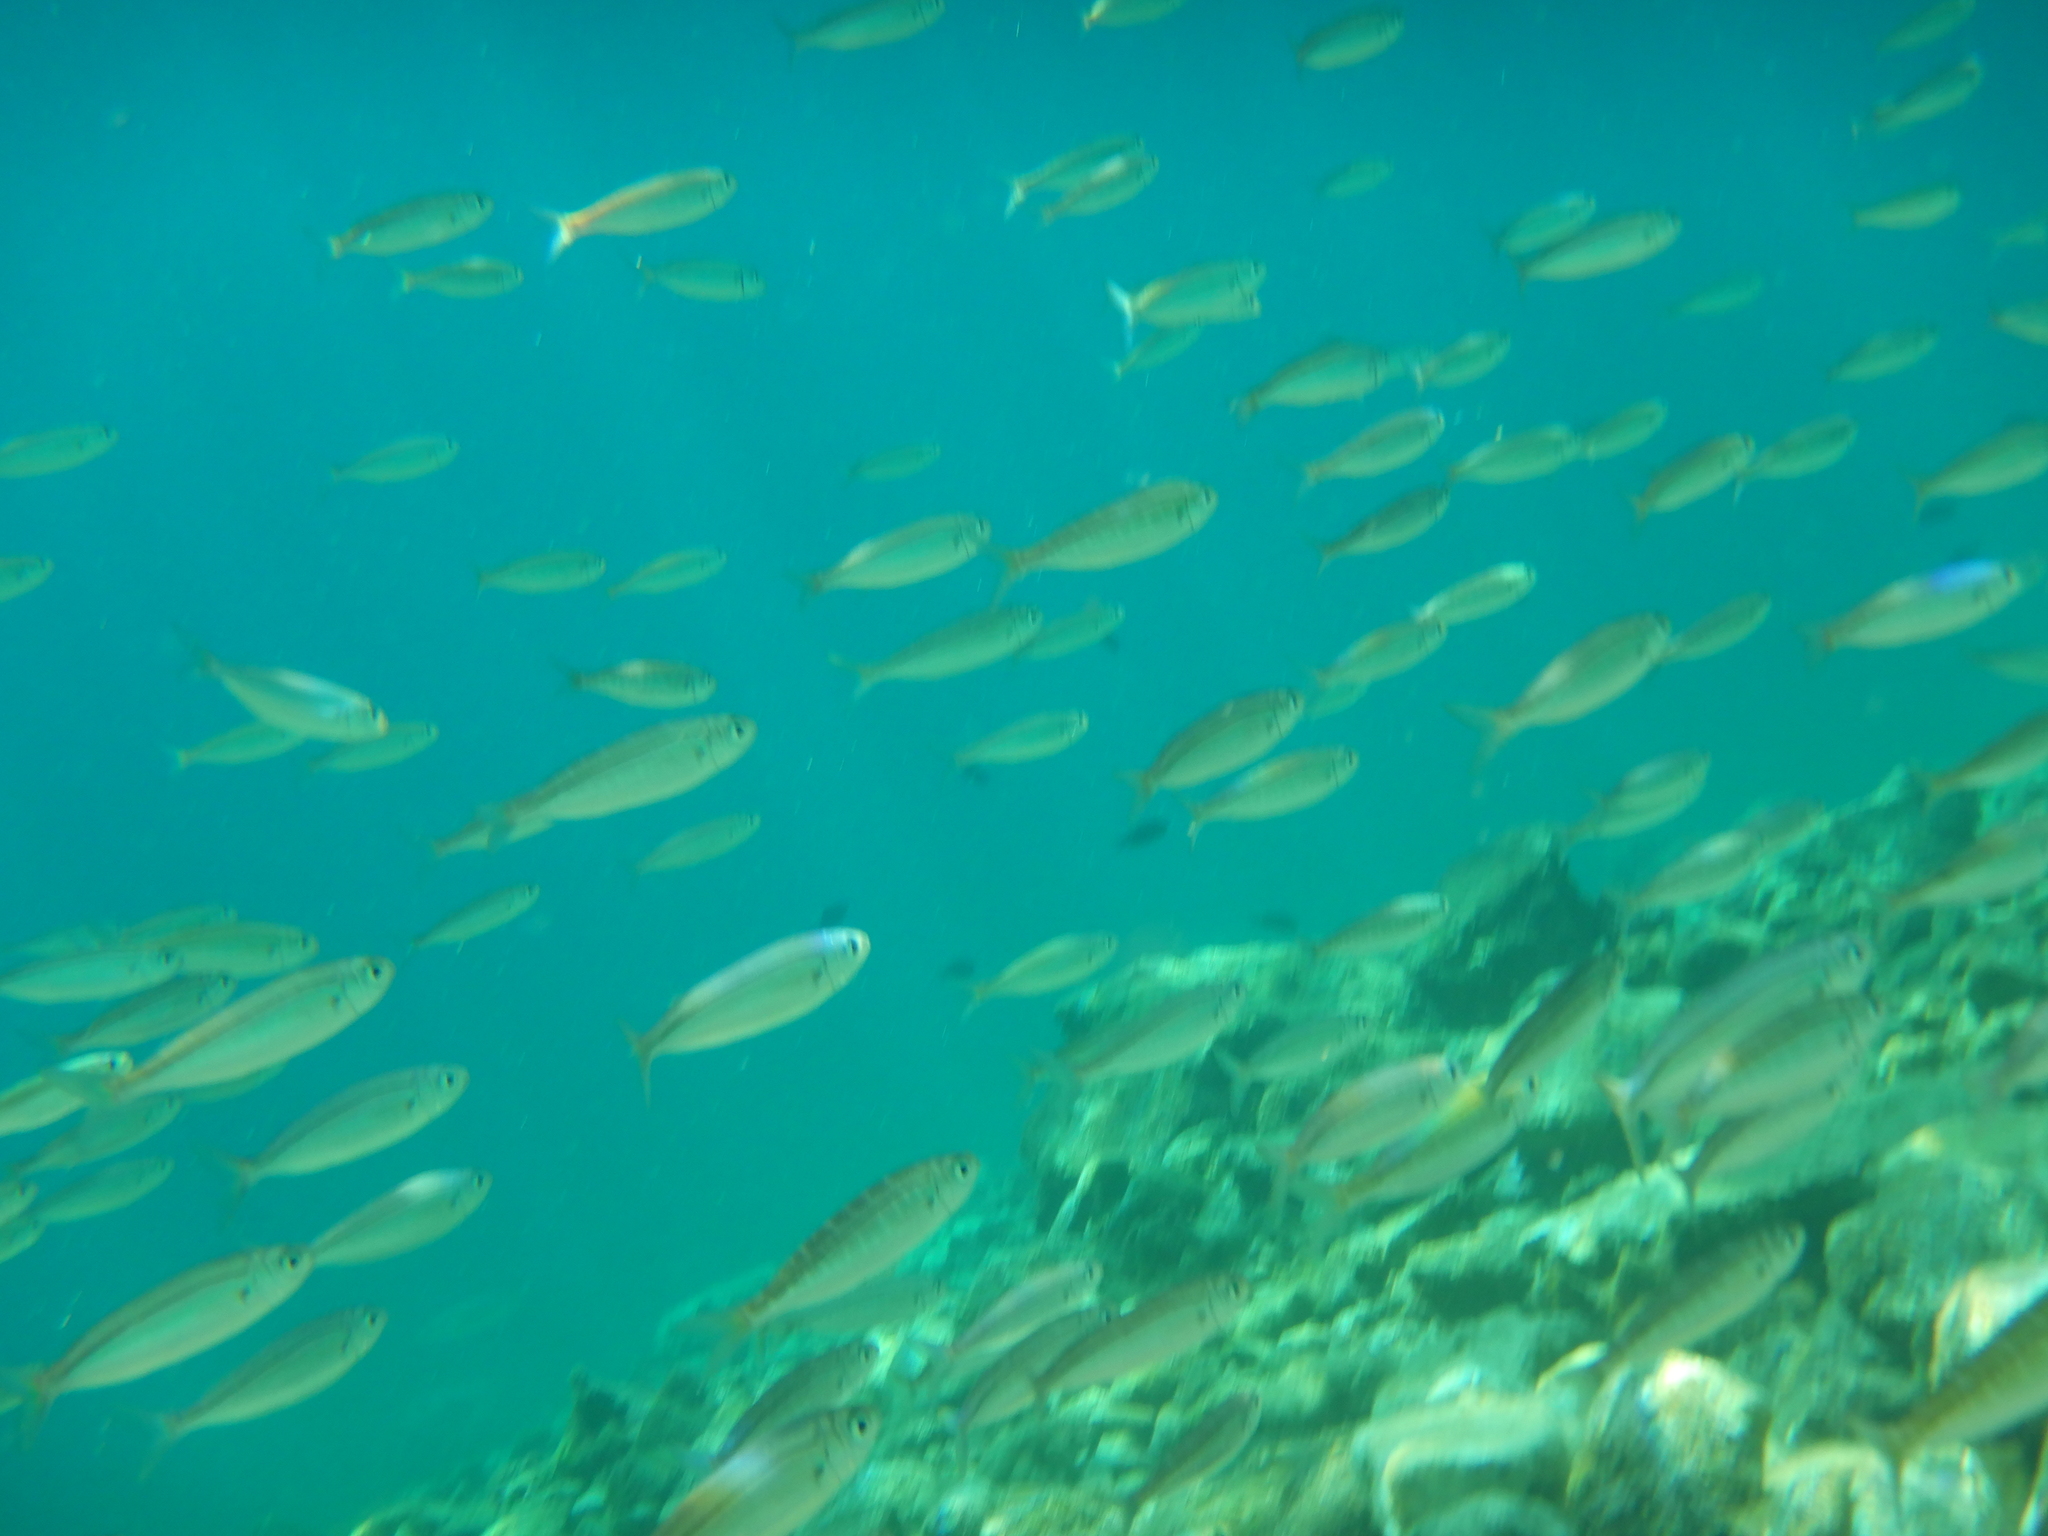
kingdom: Animalia
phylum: Chordata
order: Perciformes
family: Sparidae
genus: Boops
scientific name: Boops boops
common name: Bogue
